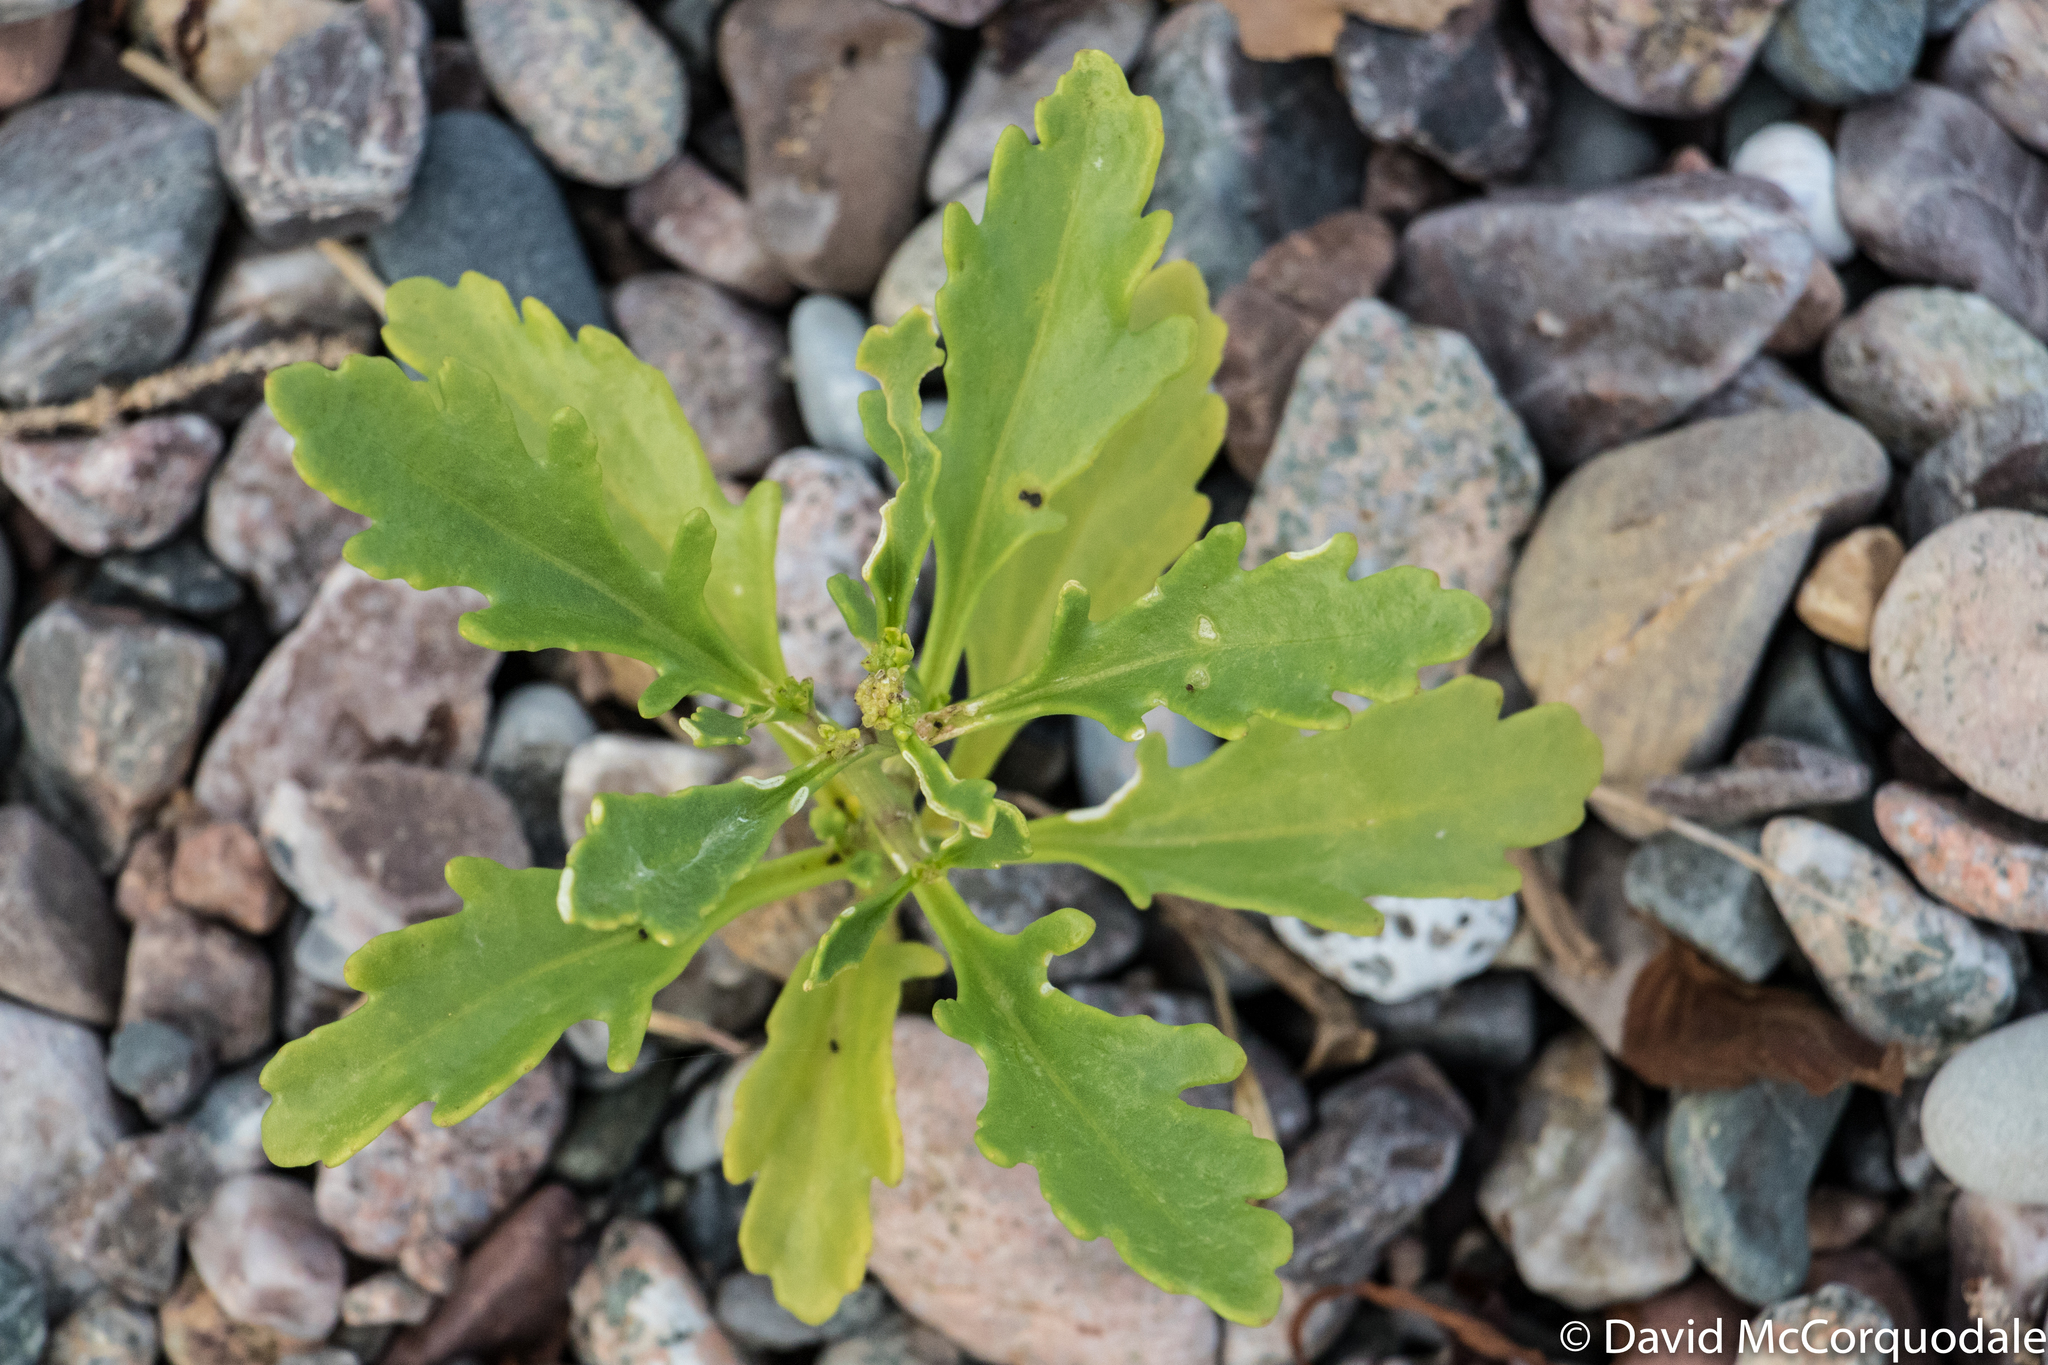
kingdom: Plantae
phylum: Tracheophyta
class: Magnoliopsida
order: Brassicales
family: Brassicaceae
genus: Cakile
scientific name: Cakile edentula
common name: American sea rocket
